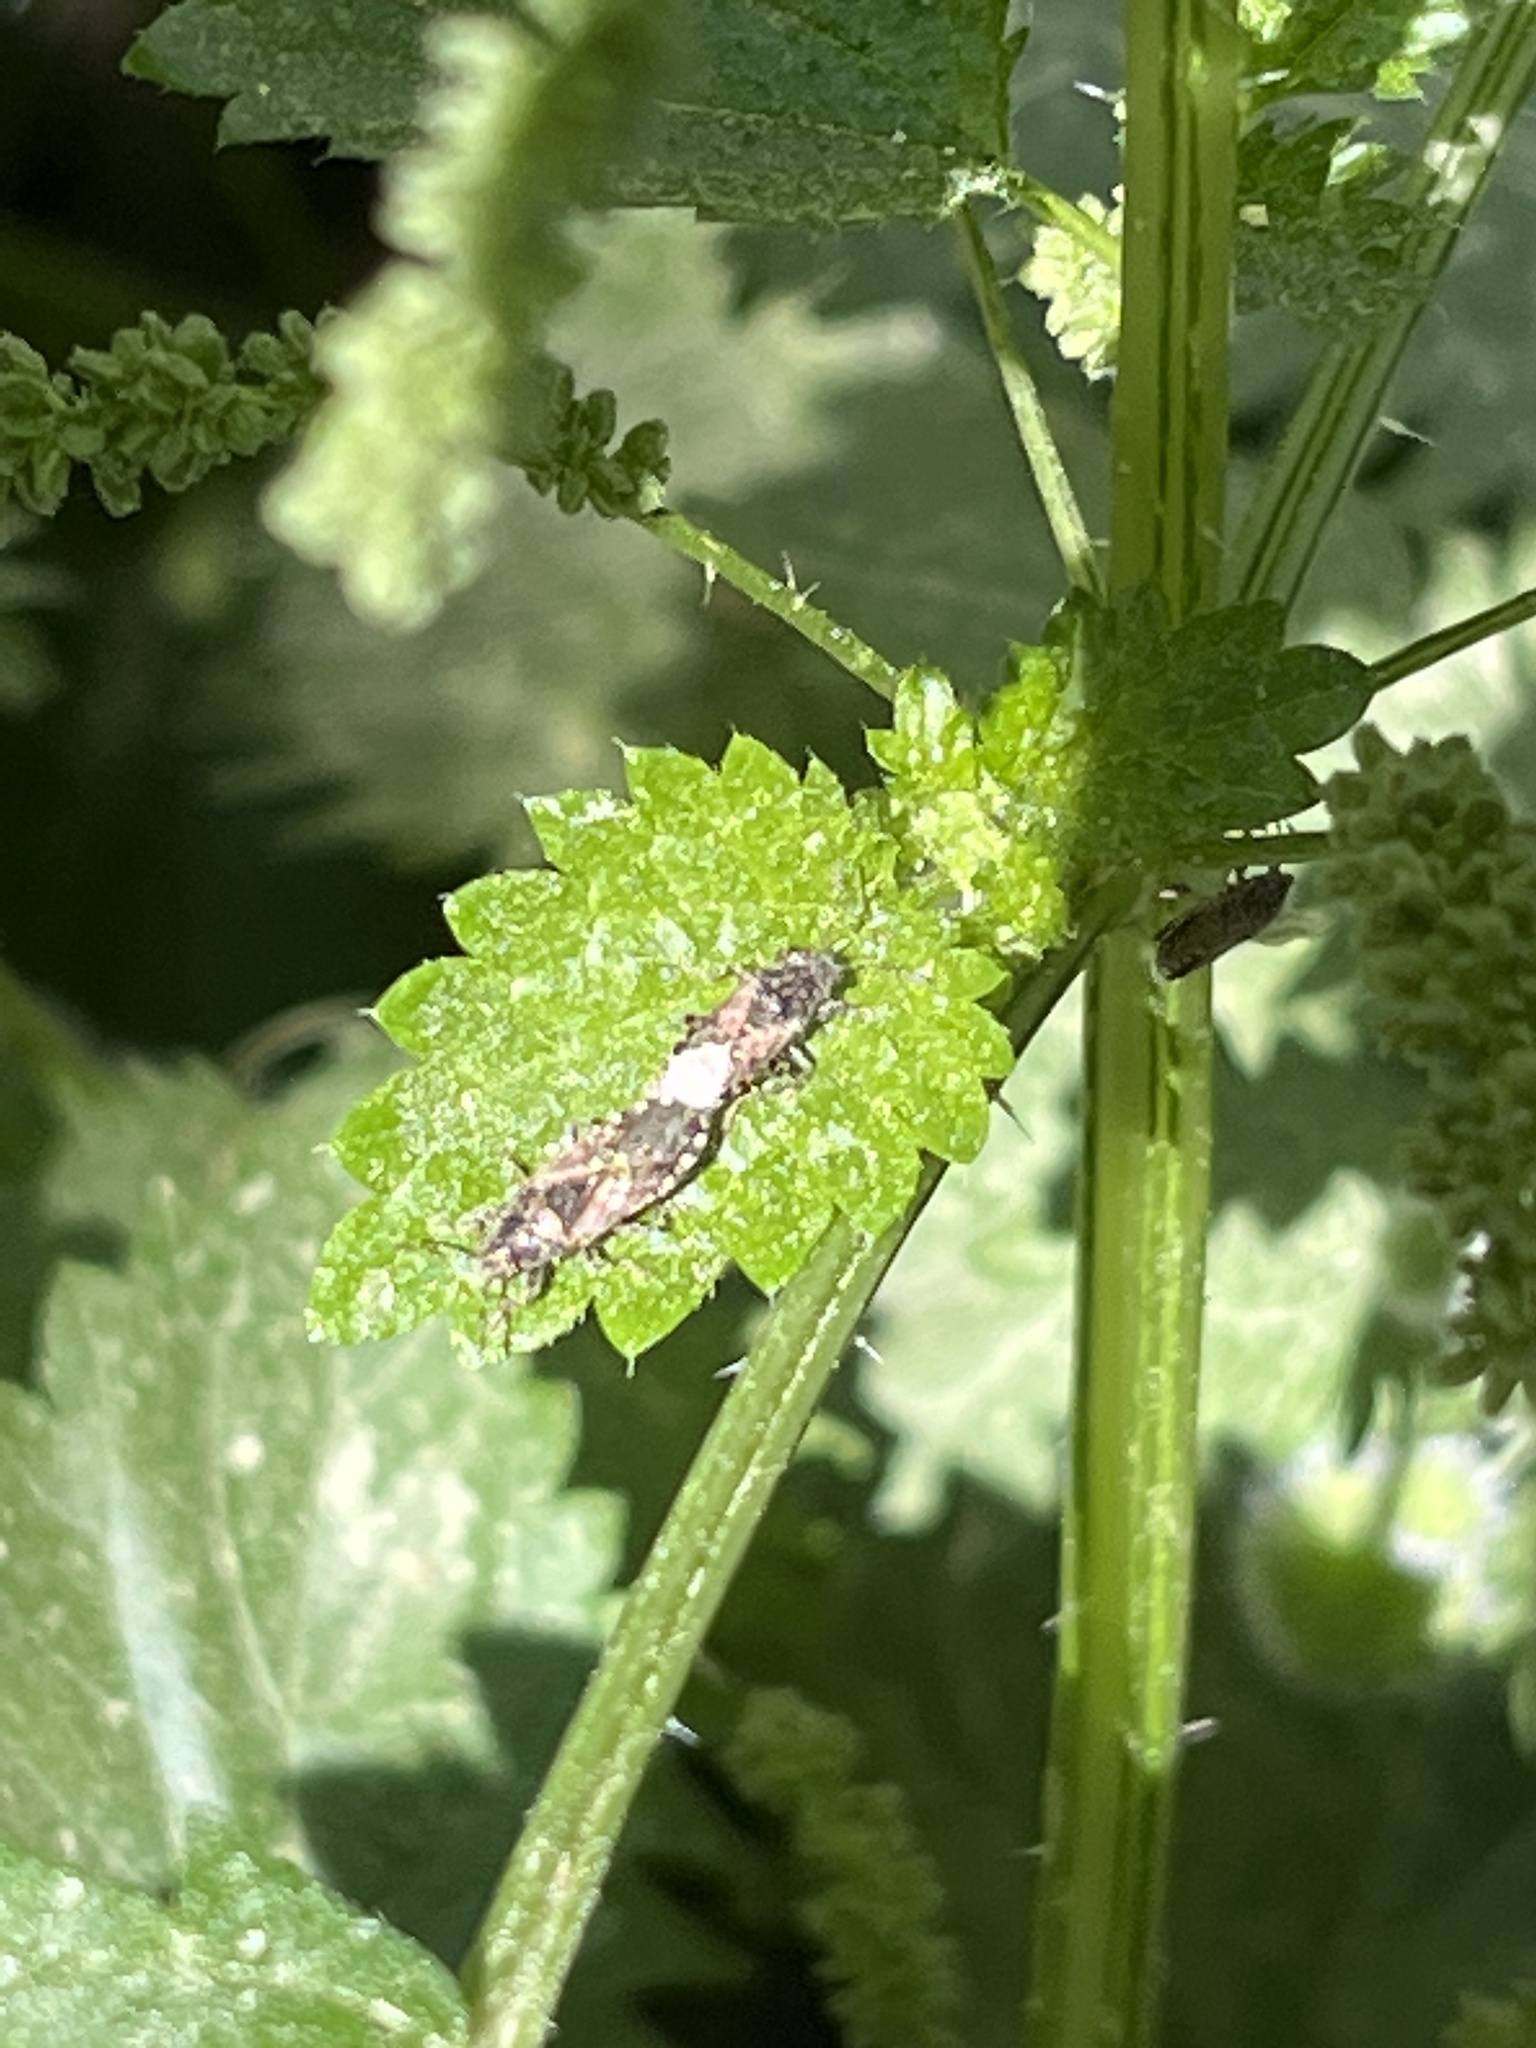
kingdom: Animalia
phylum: Arthropoda
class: Insecta
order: Hemiptera
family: Heterogastridae
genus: Heterogaster
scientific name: Heterogaster urticae
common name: Seed bug
